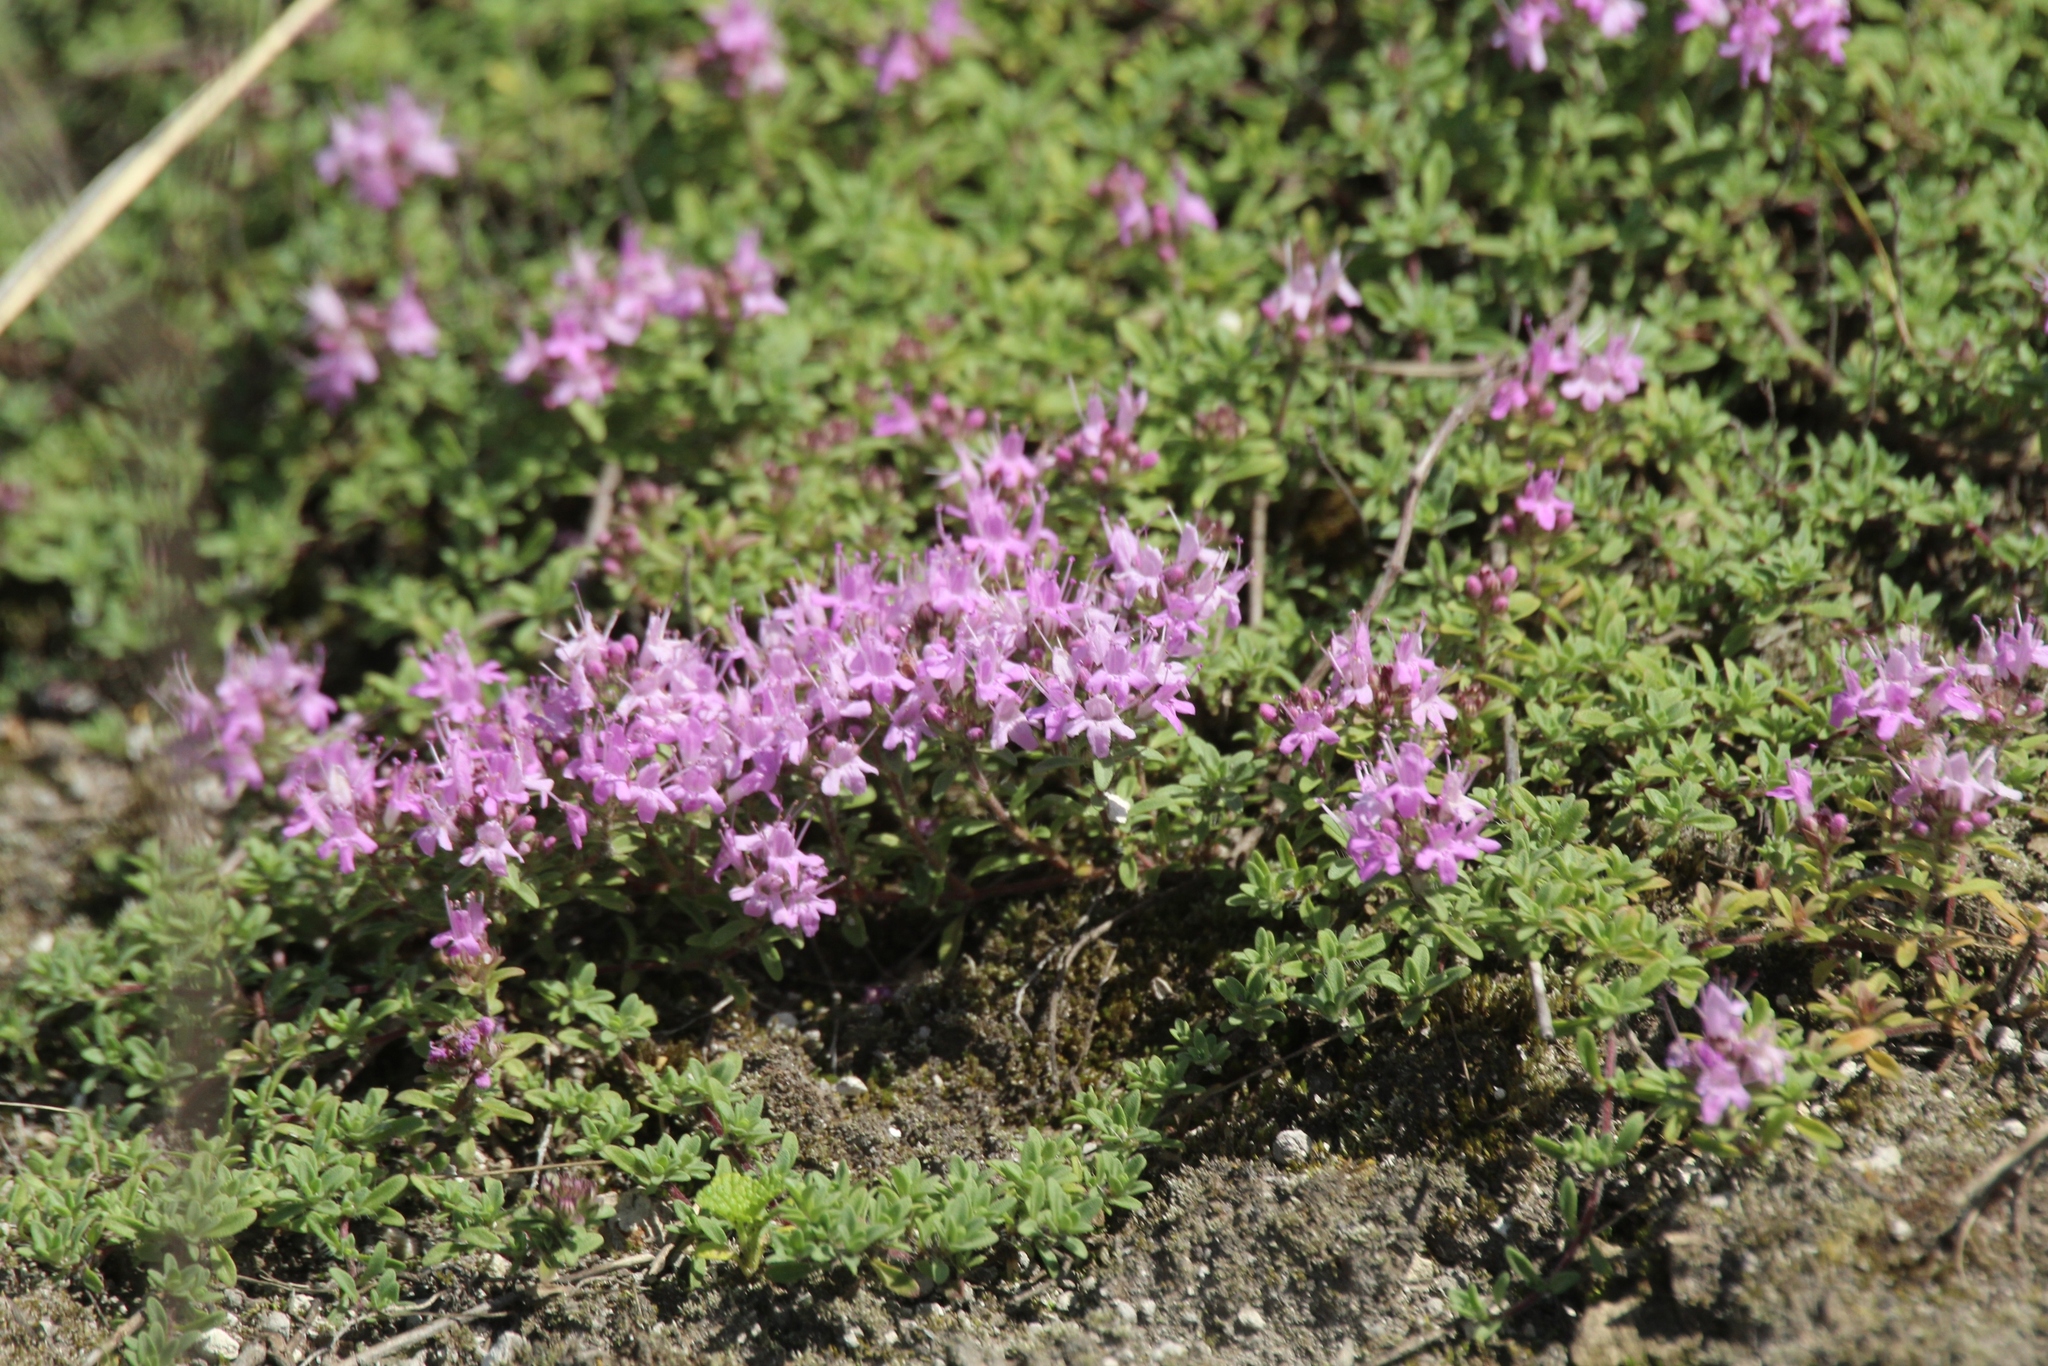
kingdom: Plantae
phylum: Tracheophyta
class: Magnoliopsida
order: Lamiales
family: Lamiaceae
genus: Thymus
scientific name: Thymus calcareus
